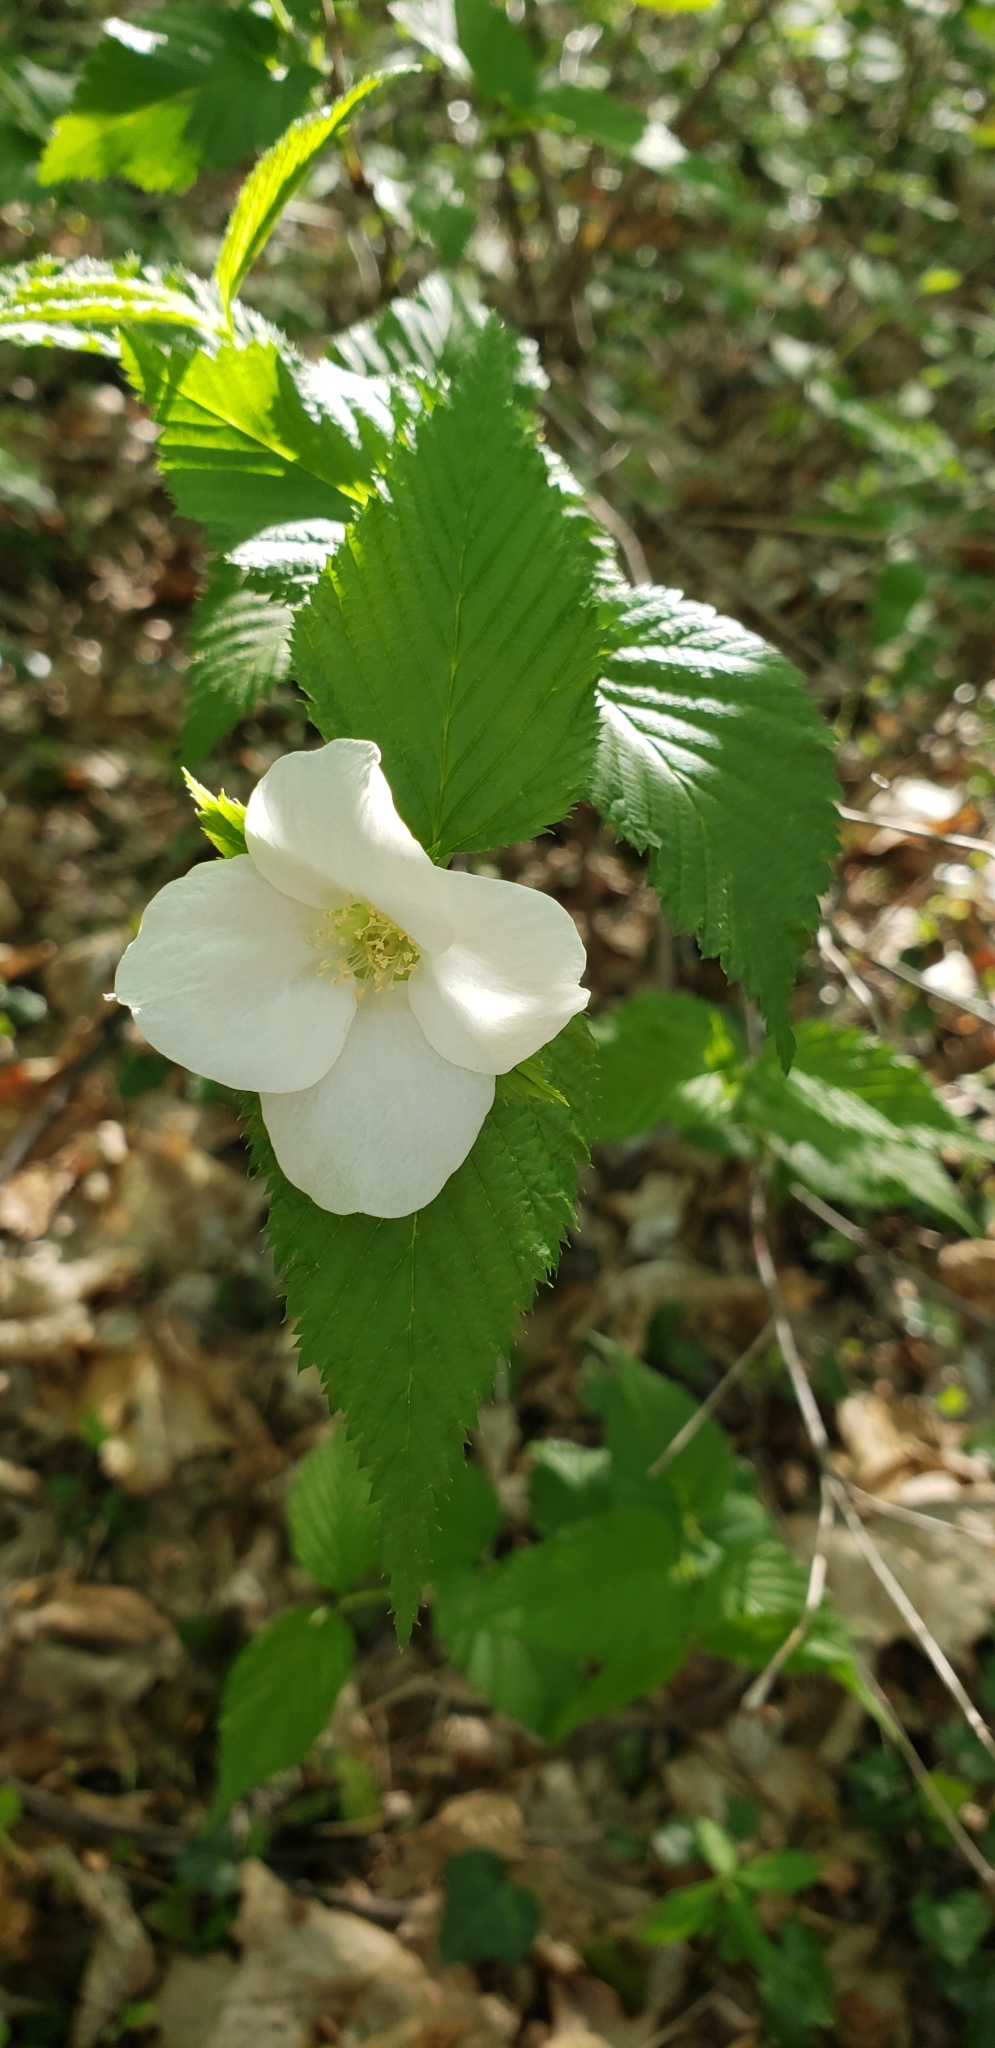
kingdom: Plantae
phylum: Tracheophyta
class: Magnoliopsida
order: Rosales
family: Rosaceae
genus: Rhodotypos
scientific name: Rhodotypos scandens
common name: Jetbead
